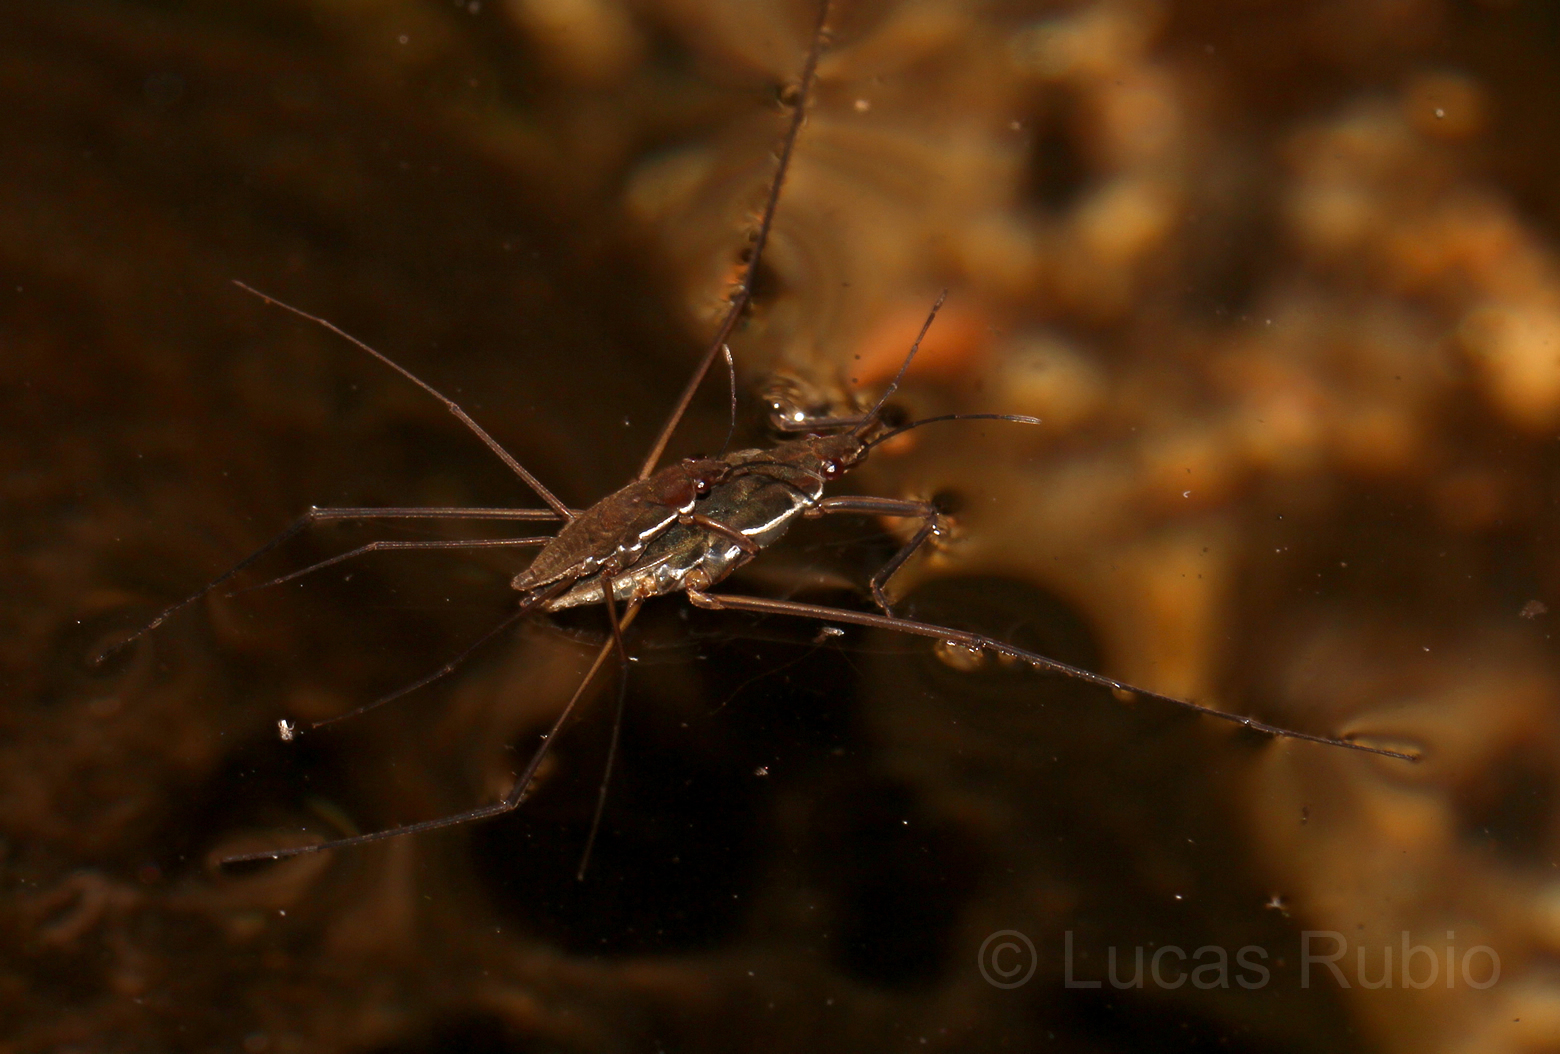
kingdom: Animalia
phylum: Arthropoda
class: Insecta
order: Hemiptera
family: Gerridae
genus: Eurygerris
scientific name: Eurygerris fuscinervis
